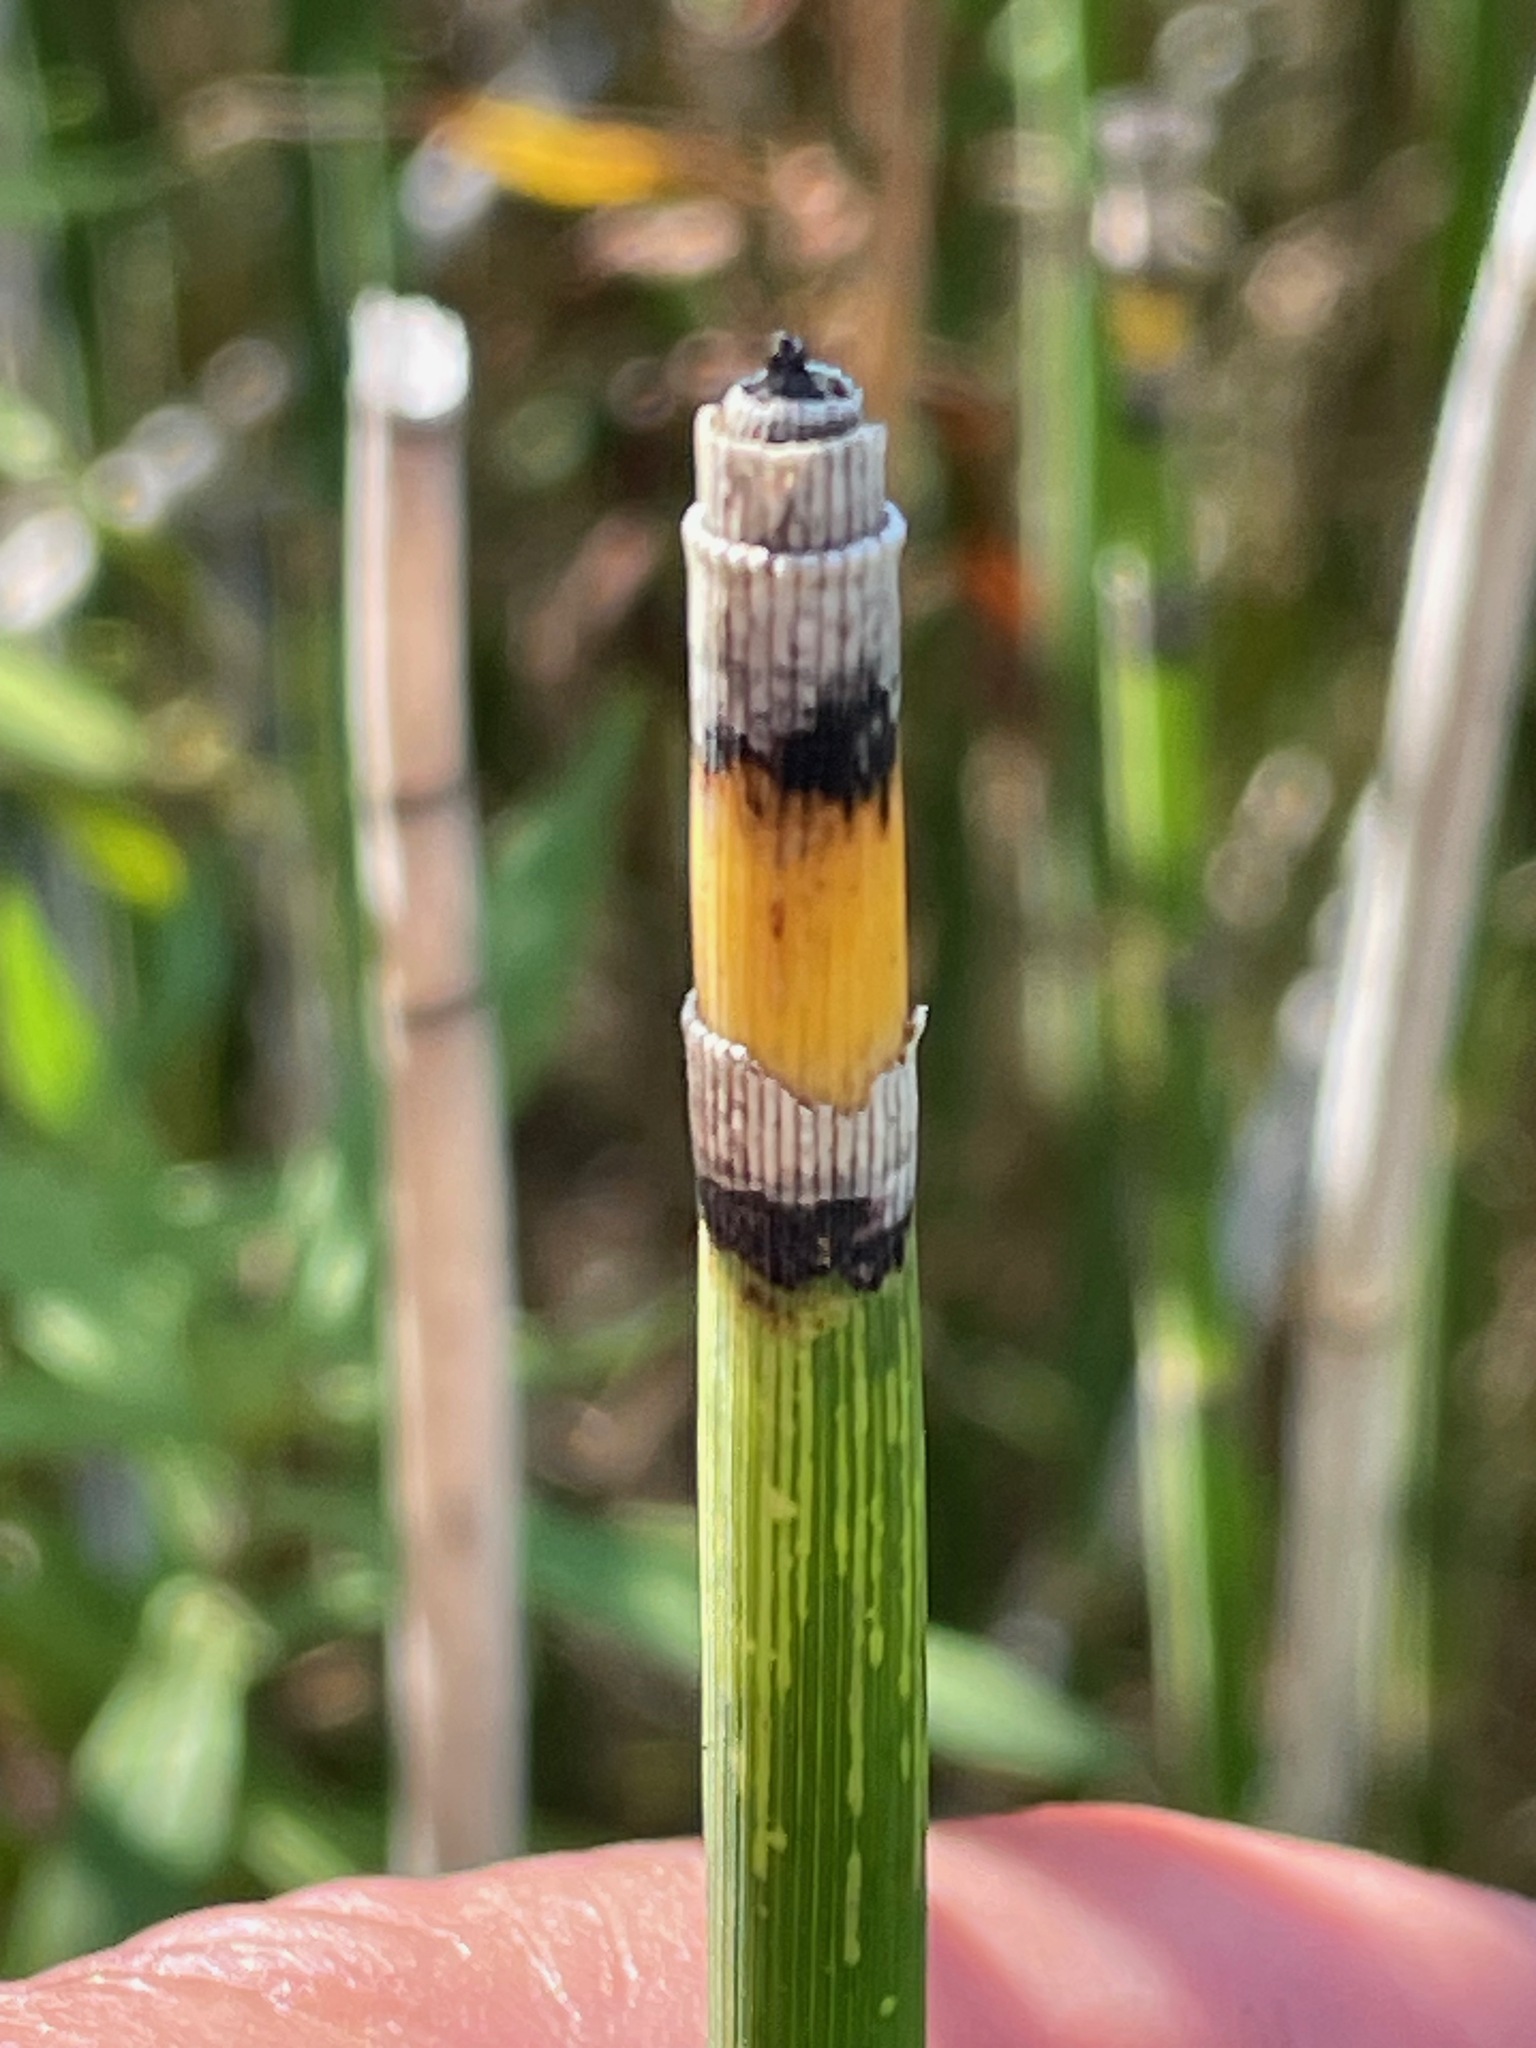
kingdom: Plantae
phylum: Tracheophyta
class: Polypodiopsida
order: Equisetales
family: Equisetaceae
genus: Equisetum
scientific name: Equisetum hyemale
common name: Rough horsetail
